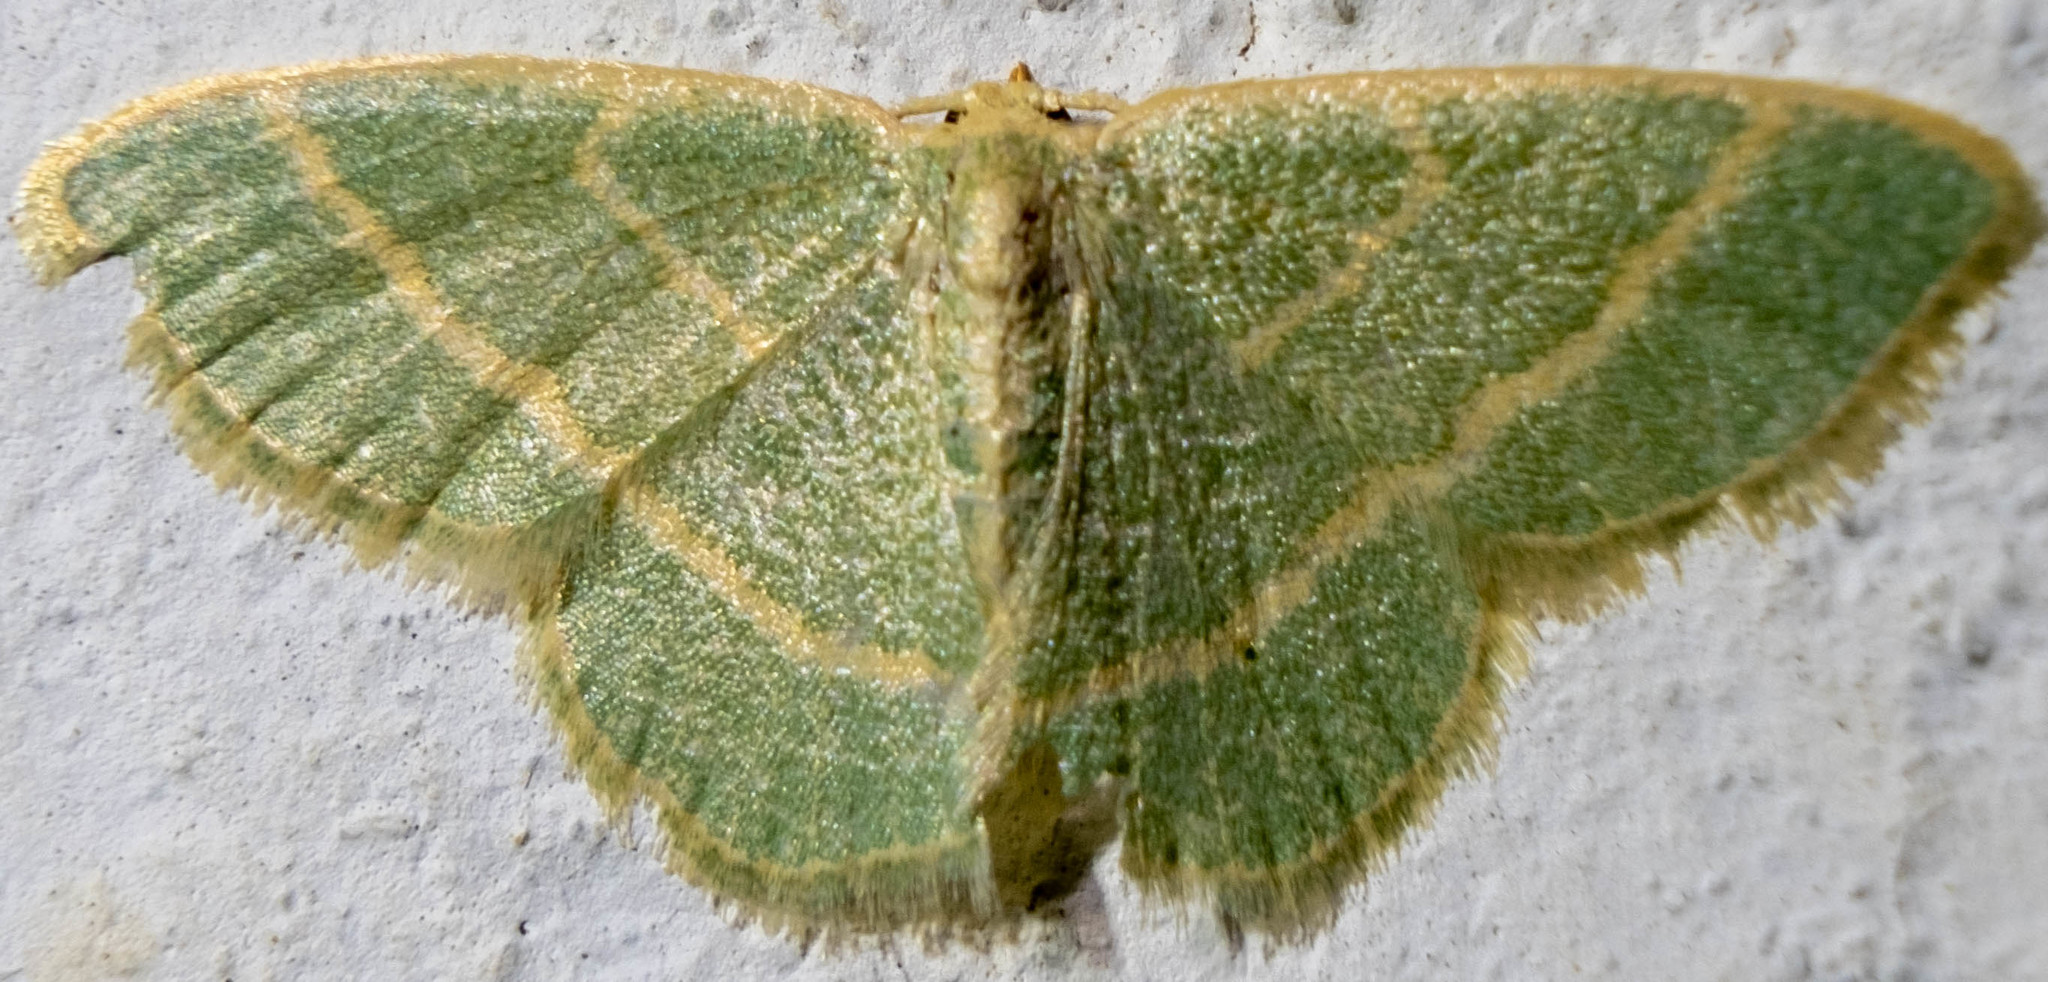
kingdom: Animalia
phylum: Arthropoda
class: Insecta
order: Lepidoptera
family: Geometridae
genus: Chlorochlamys
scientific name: Chlorochlamys chloroleucaria
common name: Blackberry looper
